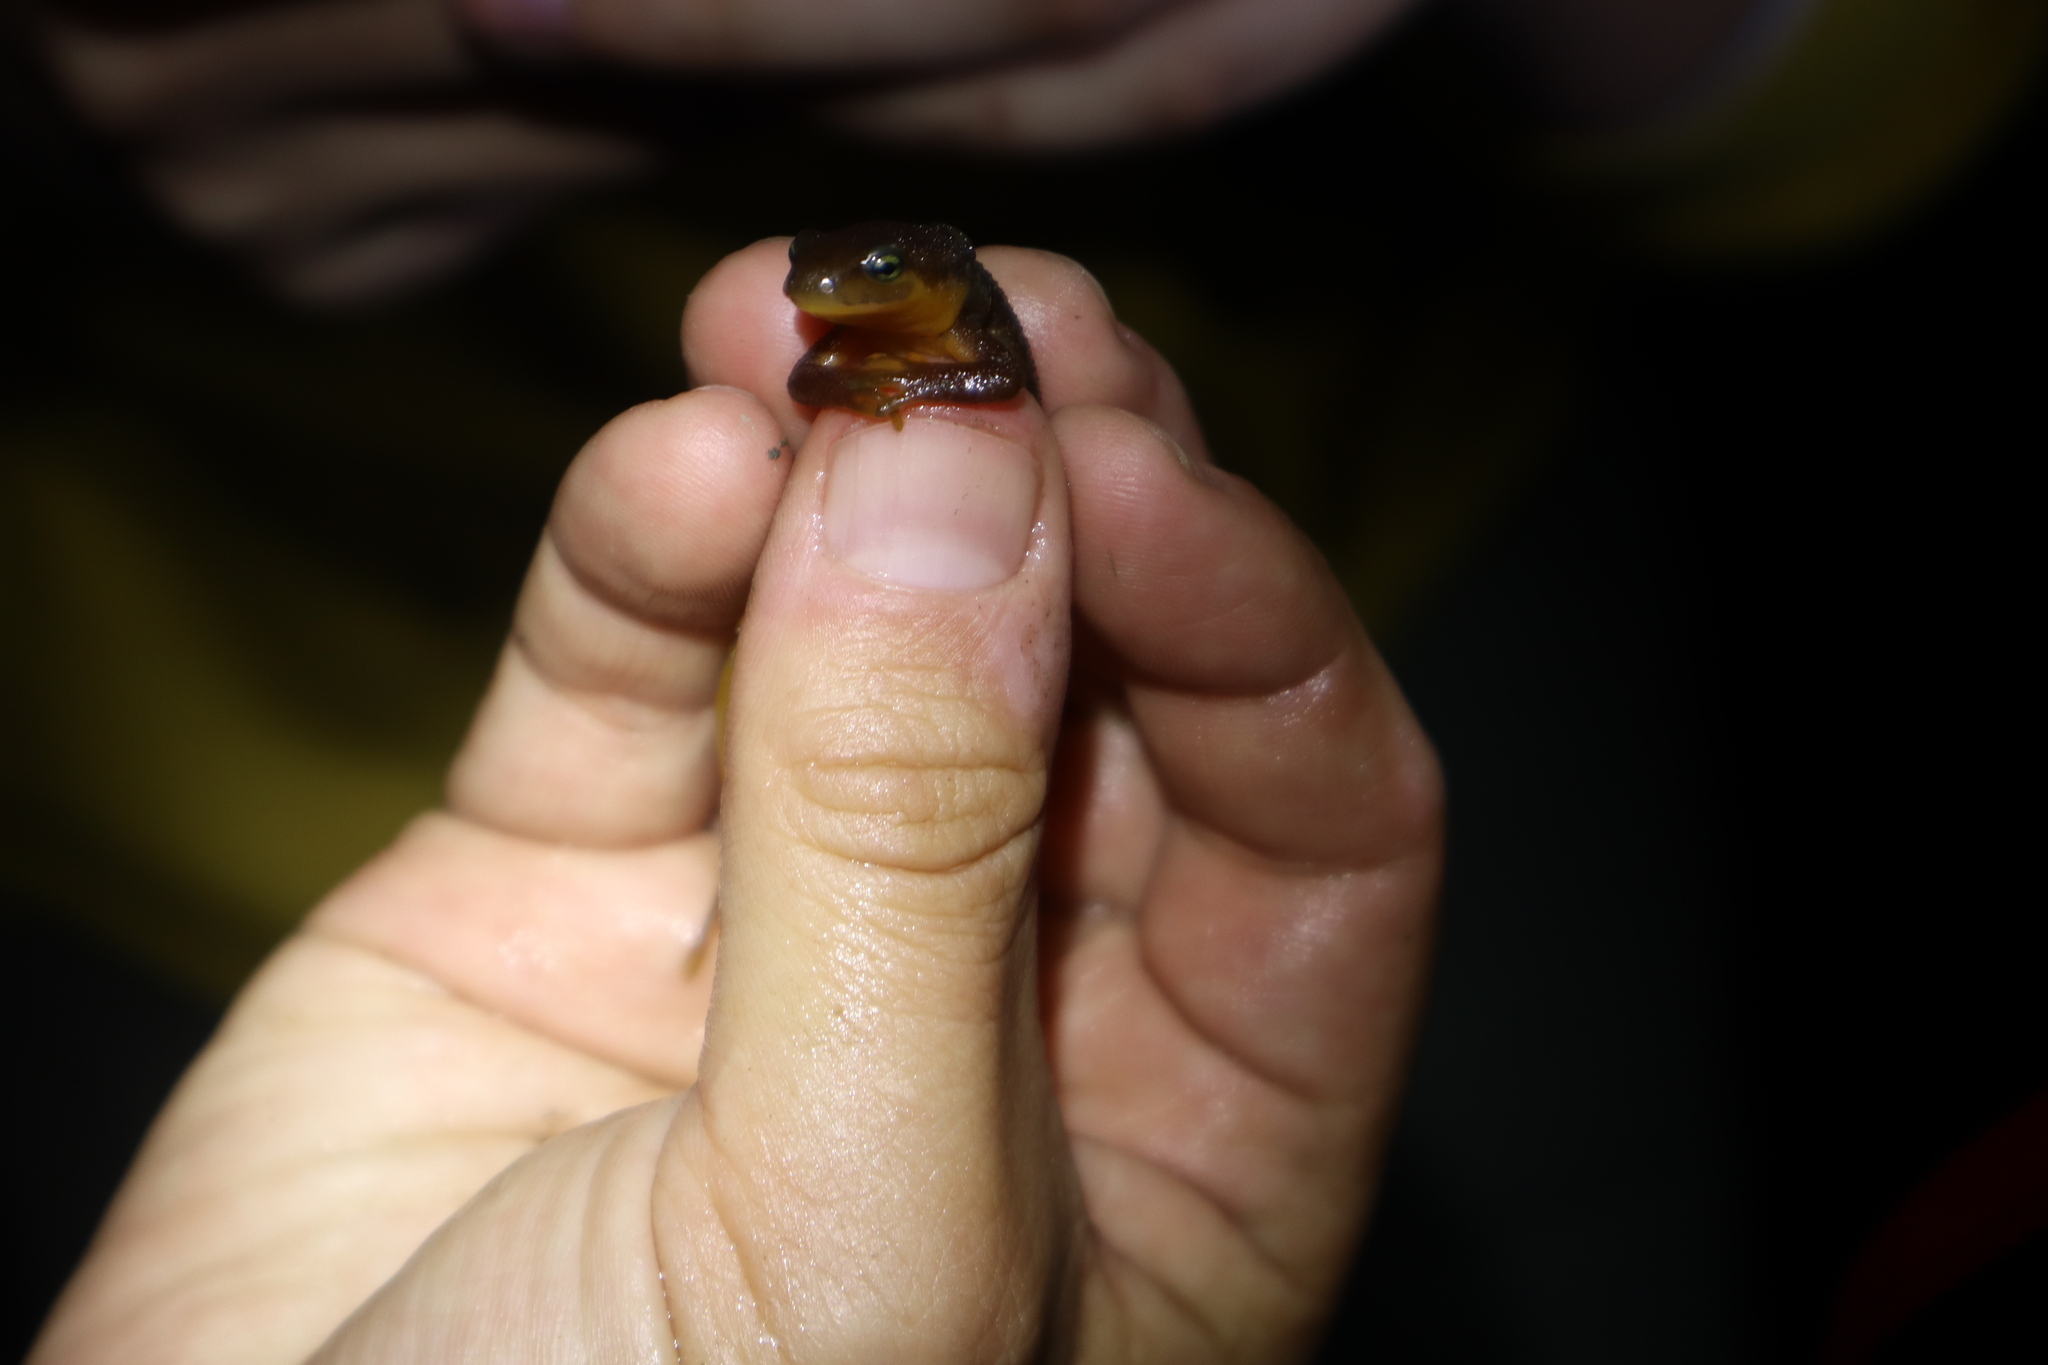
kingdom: Animalia
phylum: Chordata
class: Amphibia
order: Caudata
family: Salamandridae
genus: Taricha
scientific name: Taricha torosa
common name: California newt
